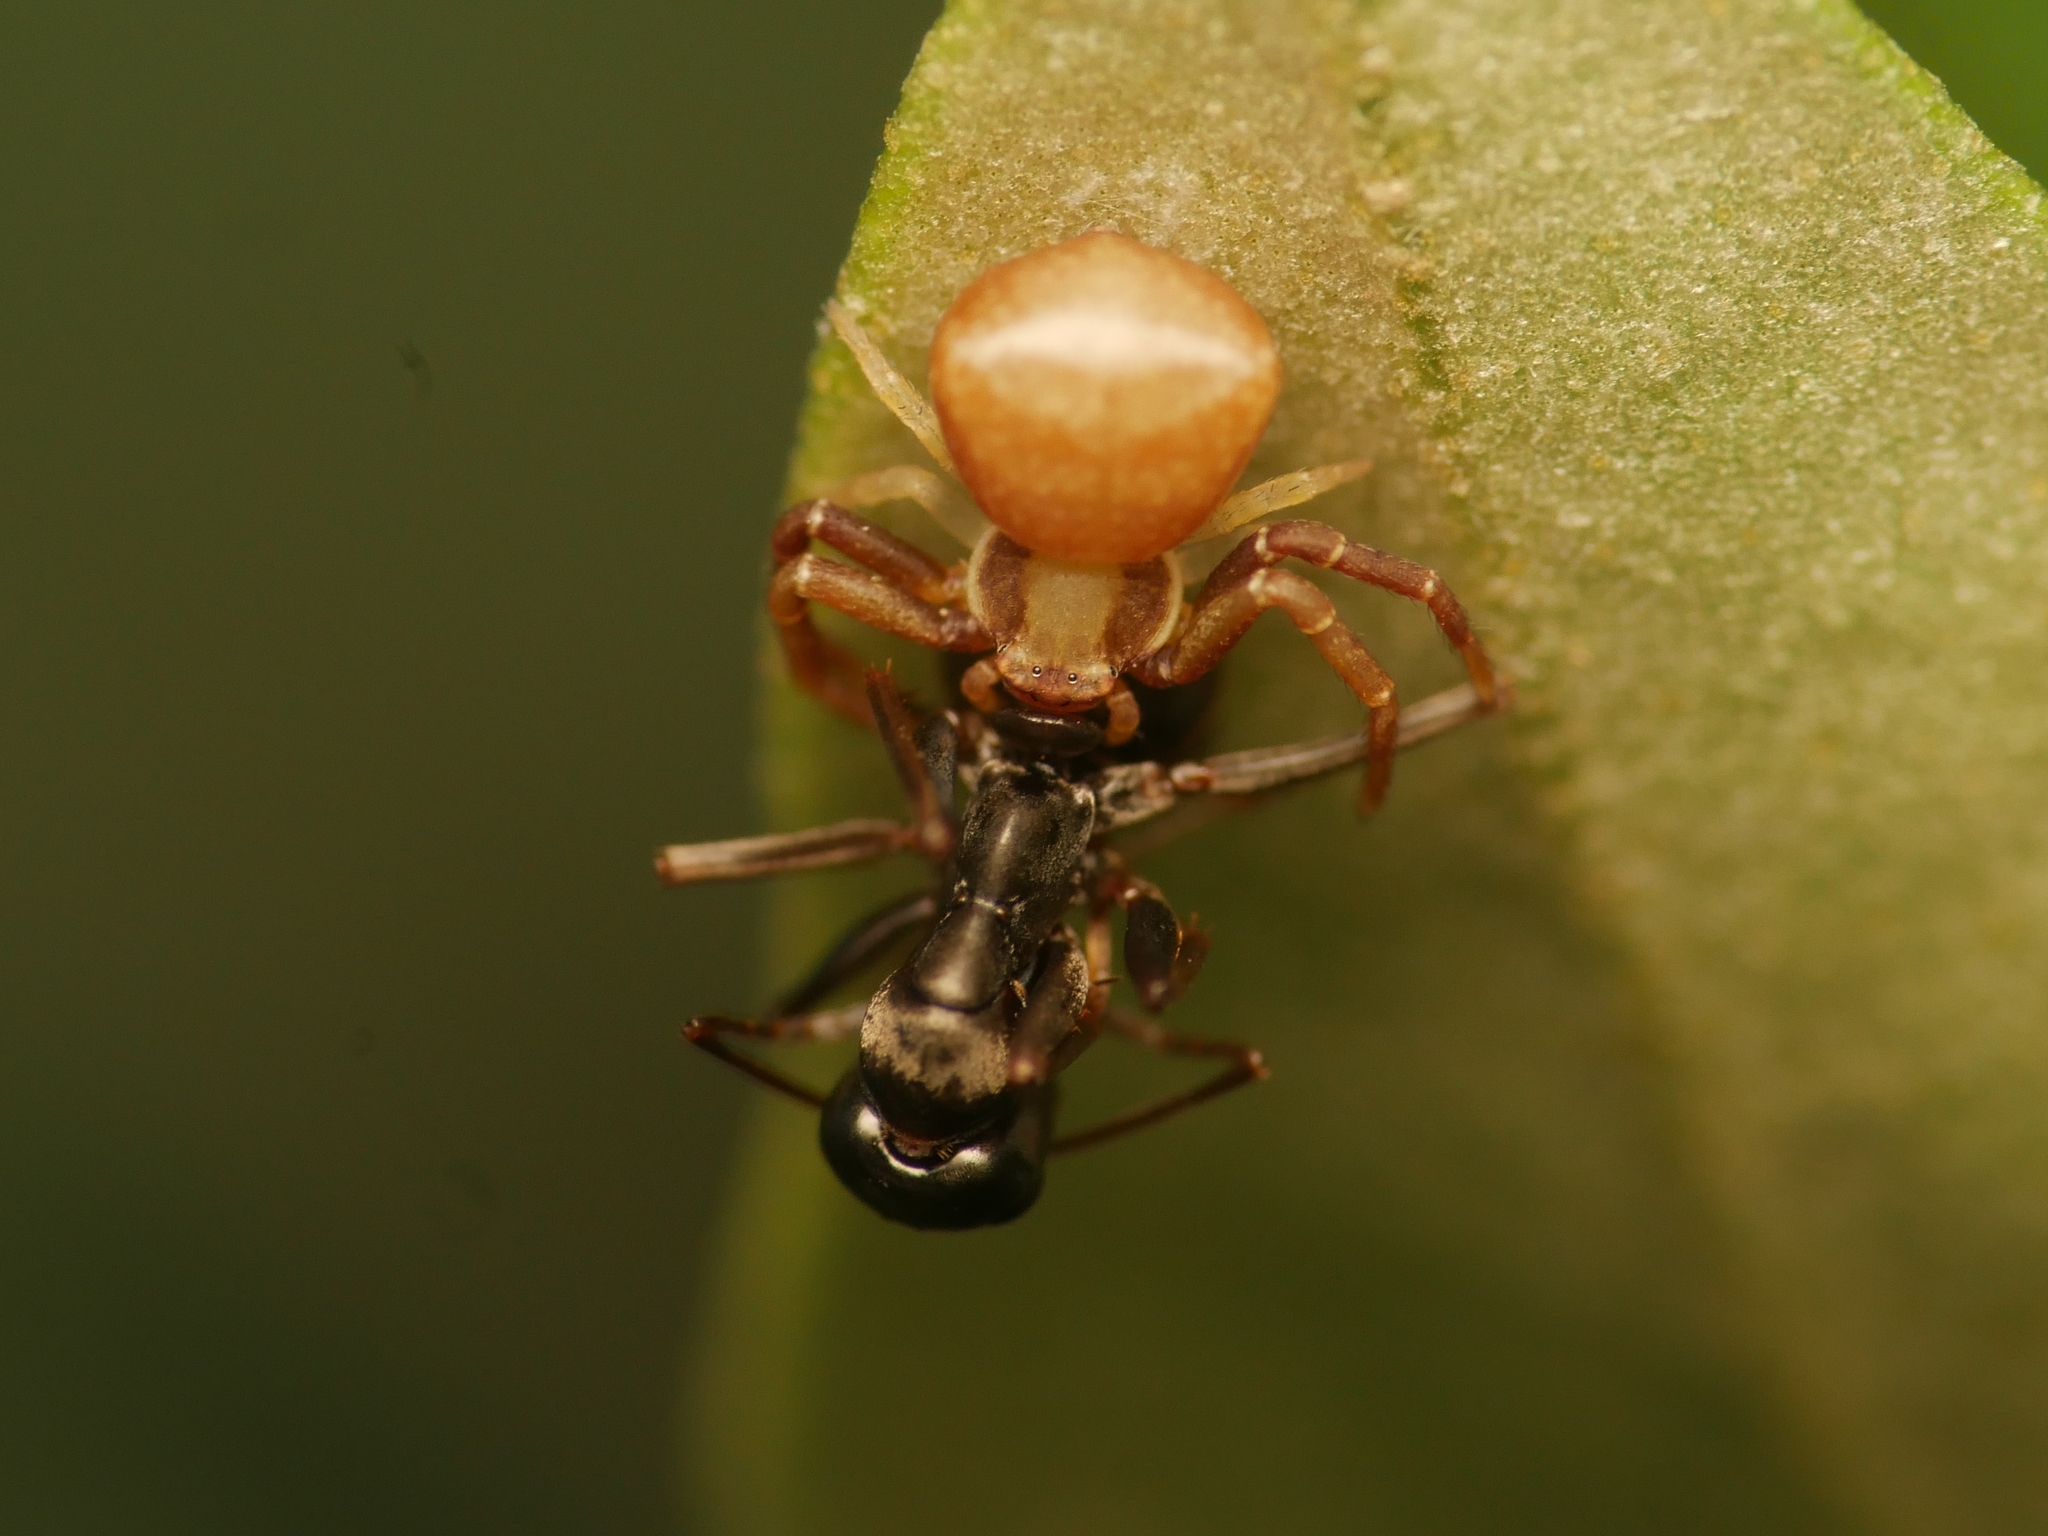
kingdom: Animalia
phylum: Arthropoda
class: Arachnida
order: Araneae
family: Thomisidae
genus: Pistius
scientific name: Pistius truncatus
